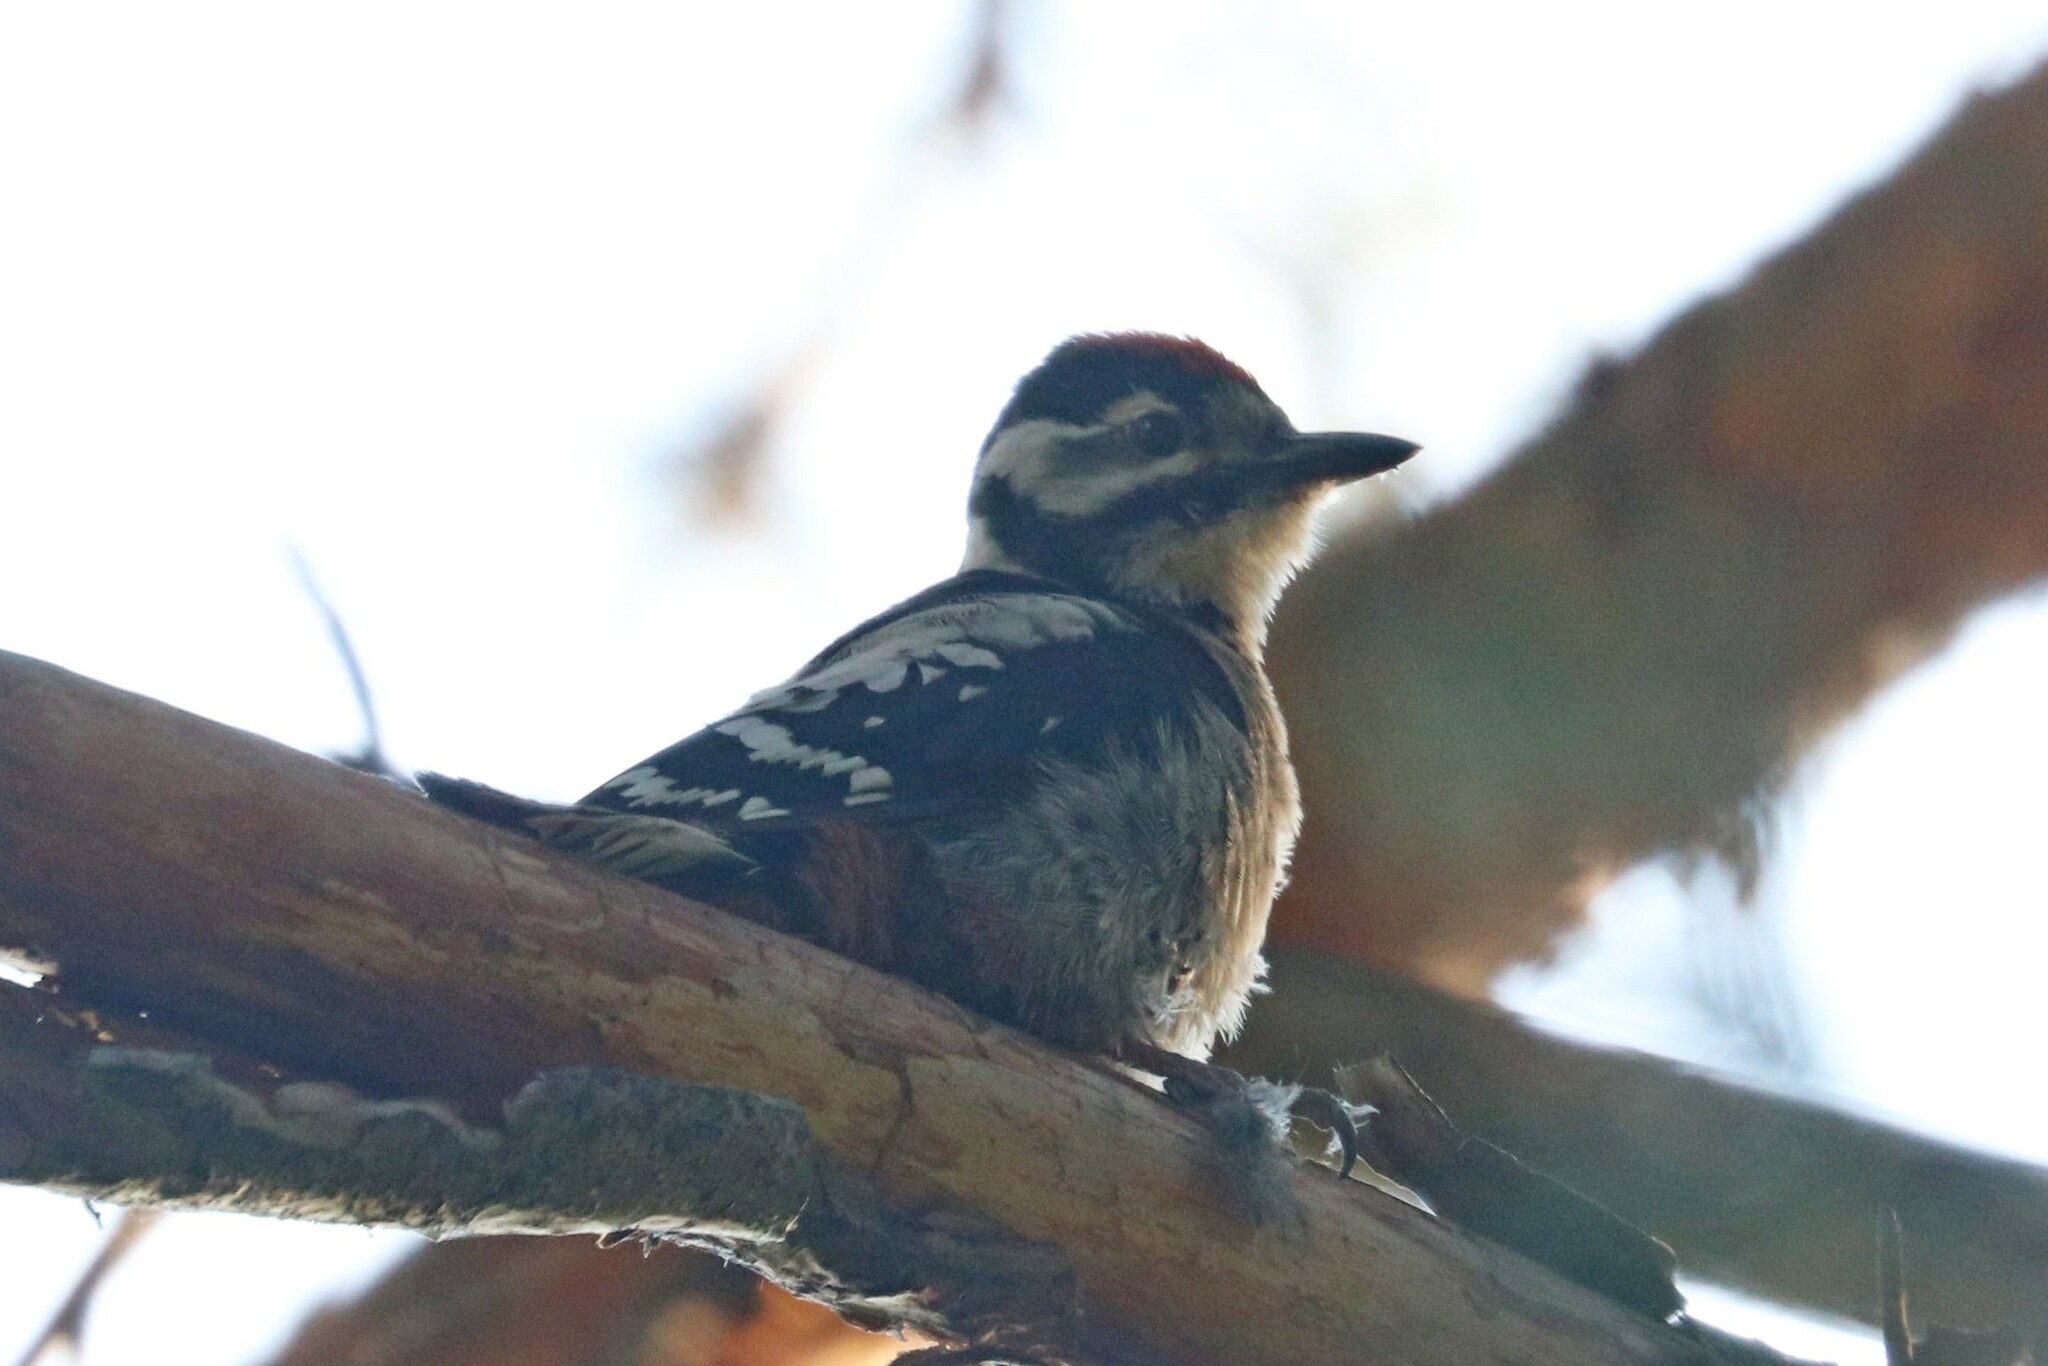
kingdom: Animalia
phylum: Chordata
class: Aves
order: Piciformes
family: Picidae
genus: Dendrocopos
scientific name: Dendrocopos leucotos
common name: White-backed woodpecker
